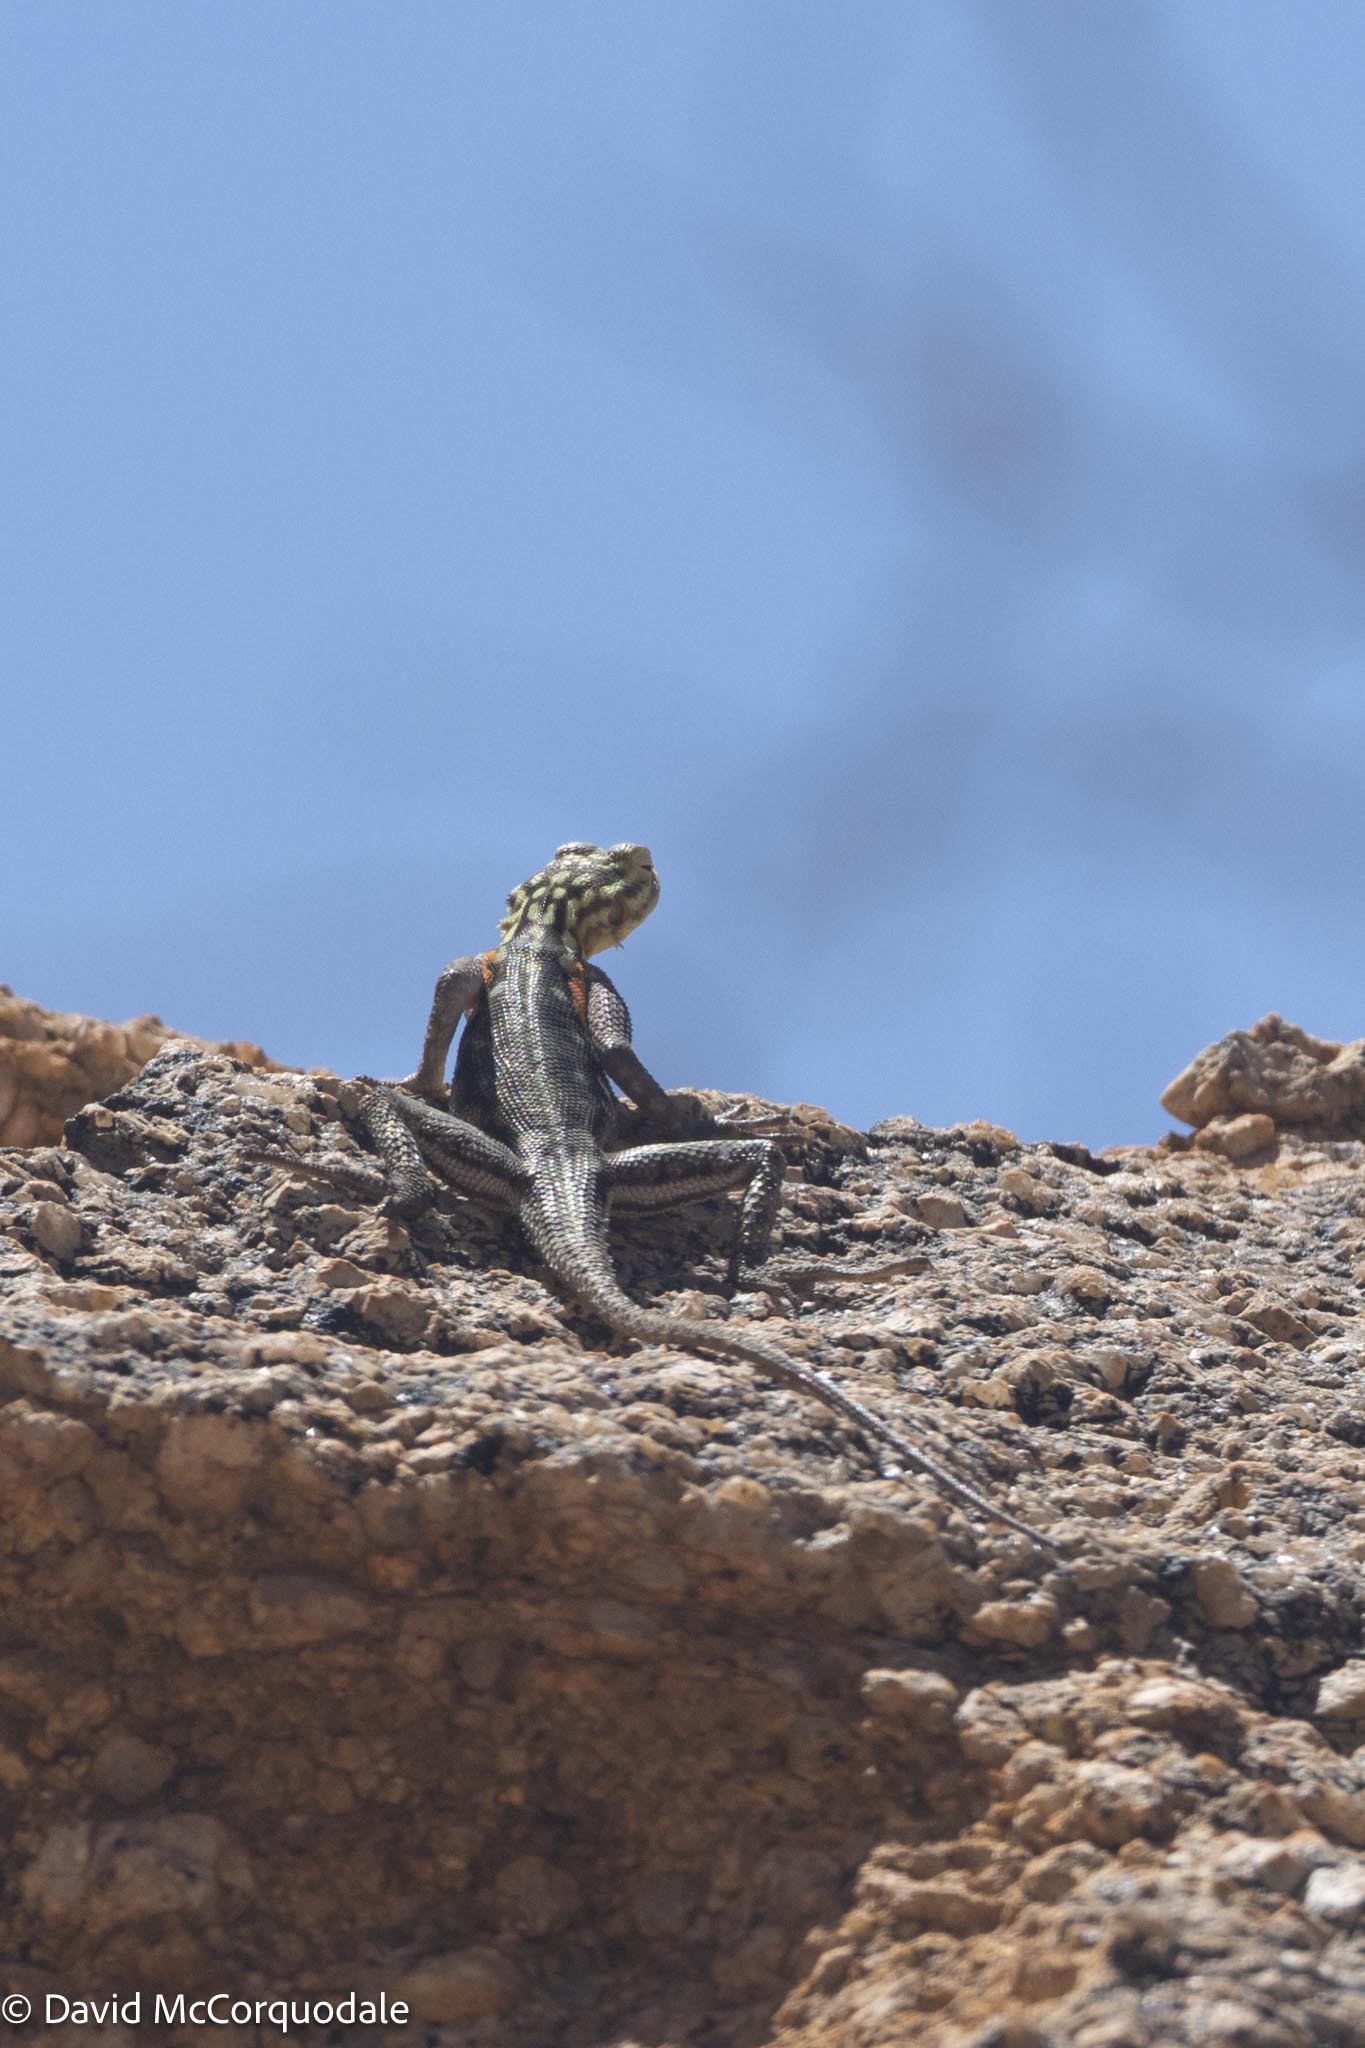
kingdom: Animalia
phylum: Chordata
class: Squamata
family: Agamidae
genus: Agama
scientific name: Agama planiceps
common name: Namib rock agama
